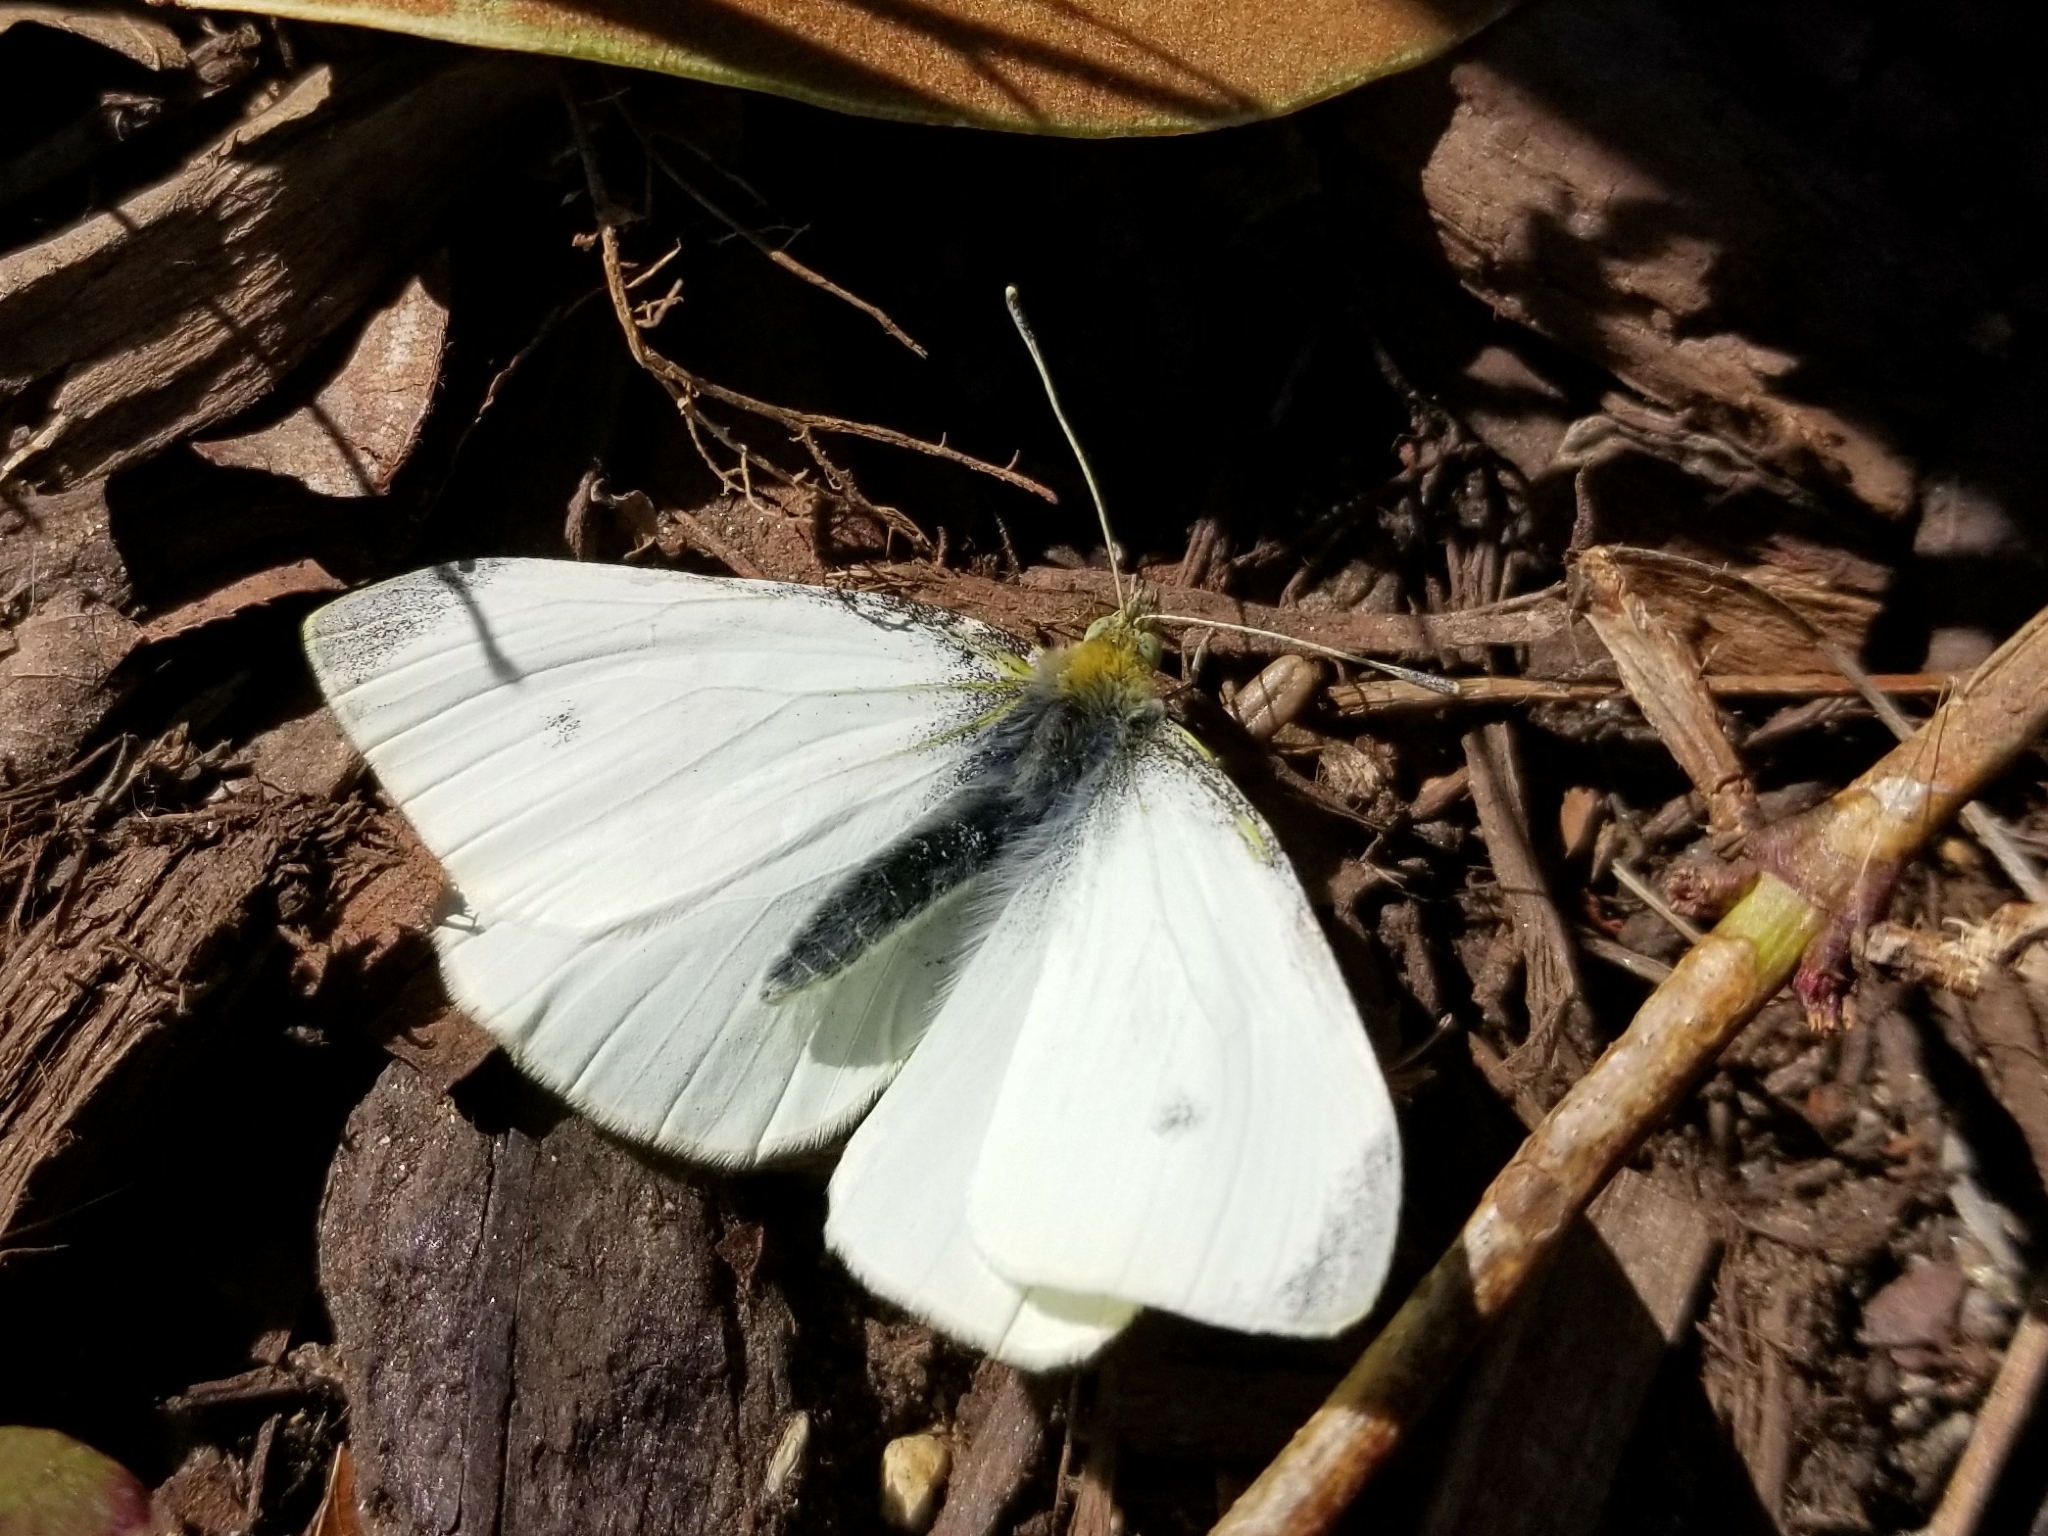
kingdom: Animalia
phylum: Arthropoda
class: Insecta
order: Lepidoptera
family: Pieridae
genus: Pieris
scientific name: Pieris rapae
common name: Small white
